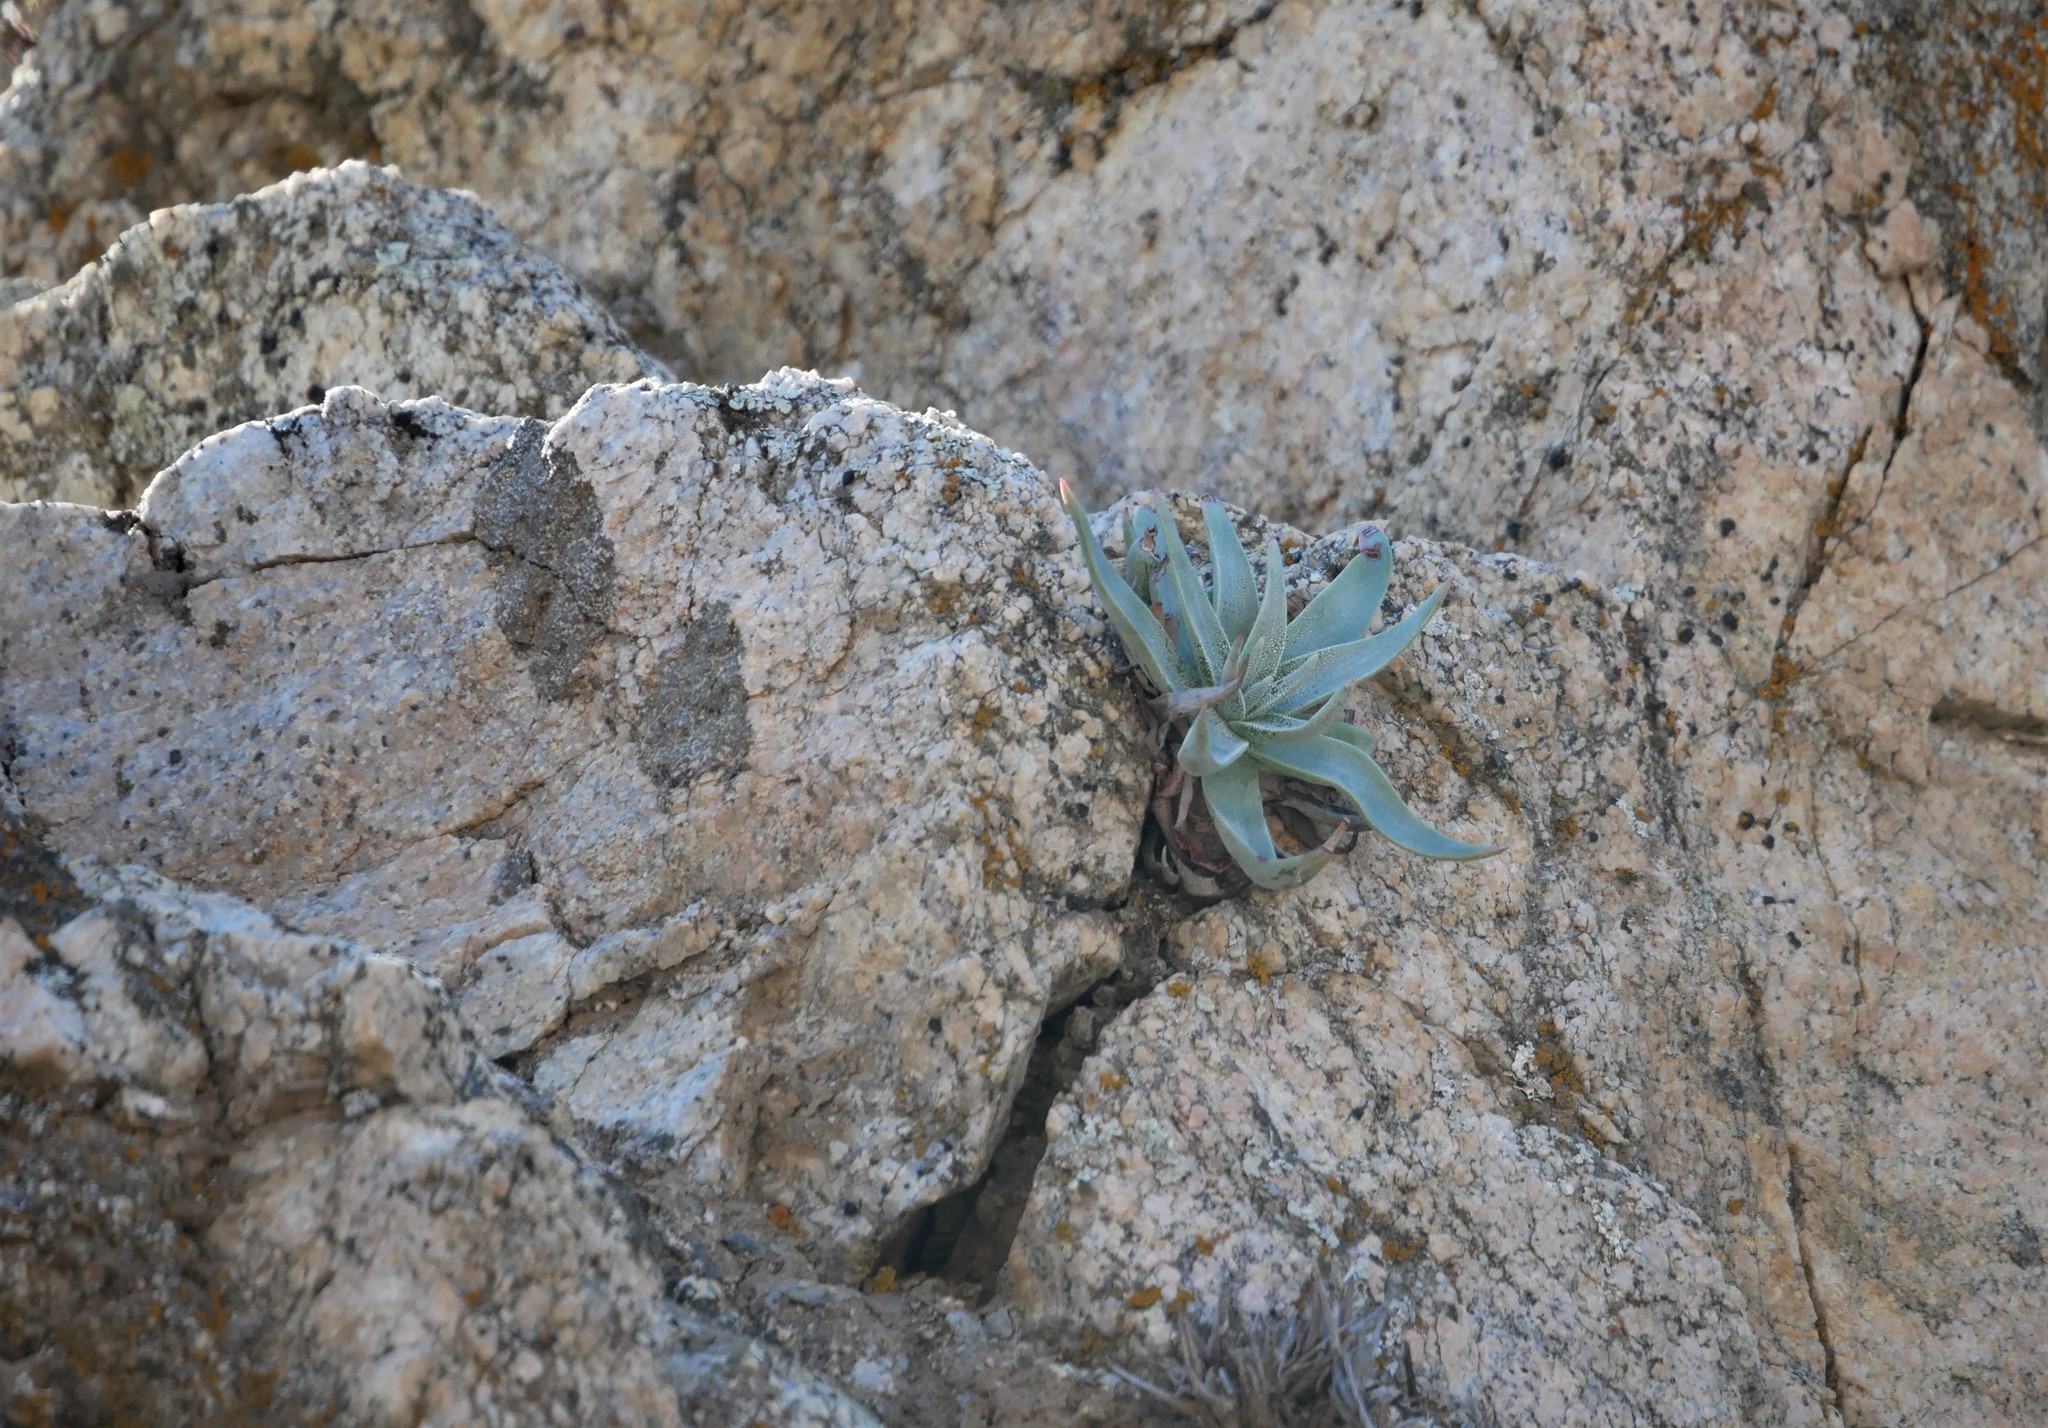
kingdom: Plantae
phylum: Tracheophyta
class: Magnoliopsida
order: Saxifragales
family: Crassulaceae
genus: Dudleya
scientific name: Dudleya saxosa
